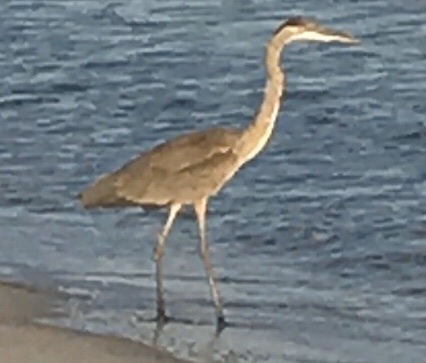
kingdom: Animalia
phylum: Chordata
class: Aves
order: Pelecaniformes
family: Ardeidae
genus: Ardea
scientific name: Ardea herodias
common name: Great blue heron
